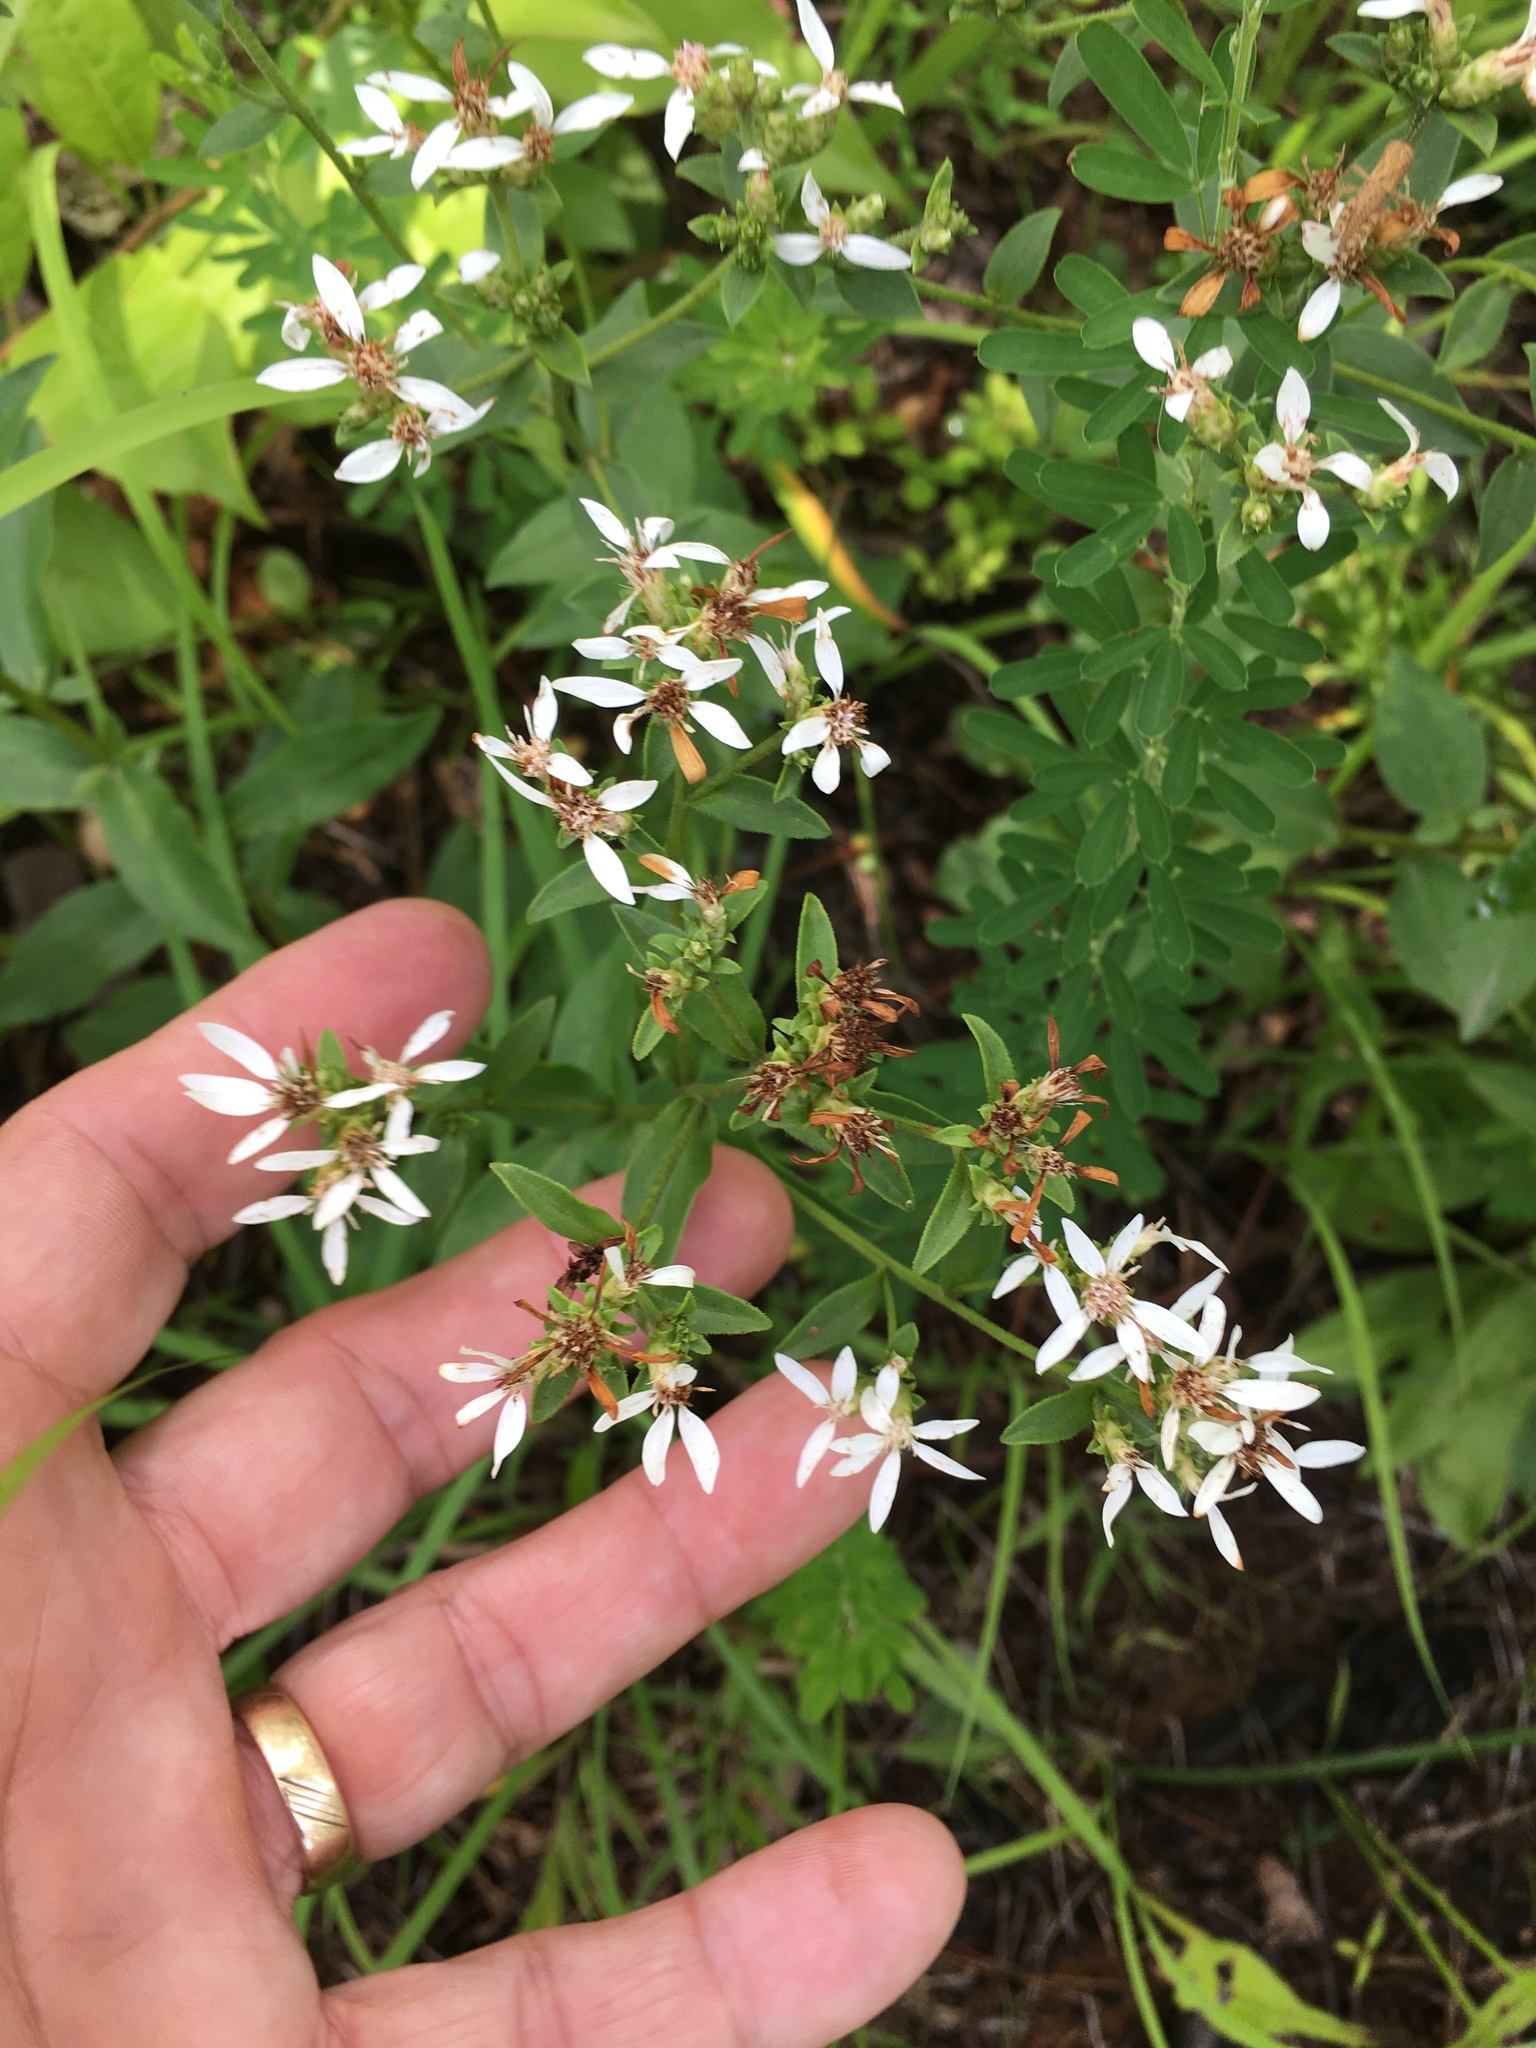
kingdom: Plantae
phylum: Tracheophyta
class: Magnoliopsida
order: Asterales
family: Asteraceae
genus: Sericocarpus
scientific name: Sericocarpus asteroides
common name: Toothed white-top aster
